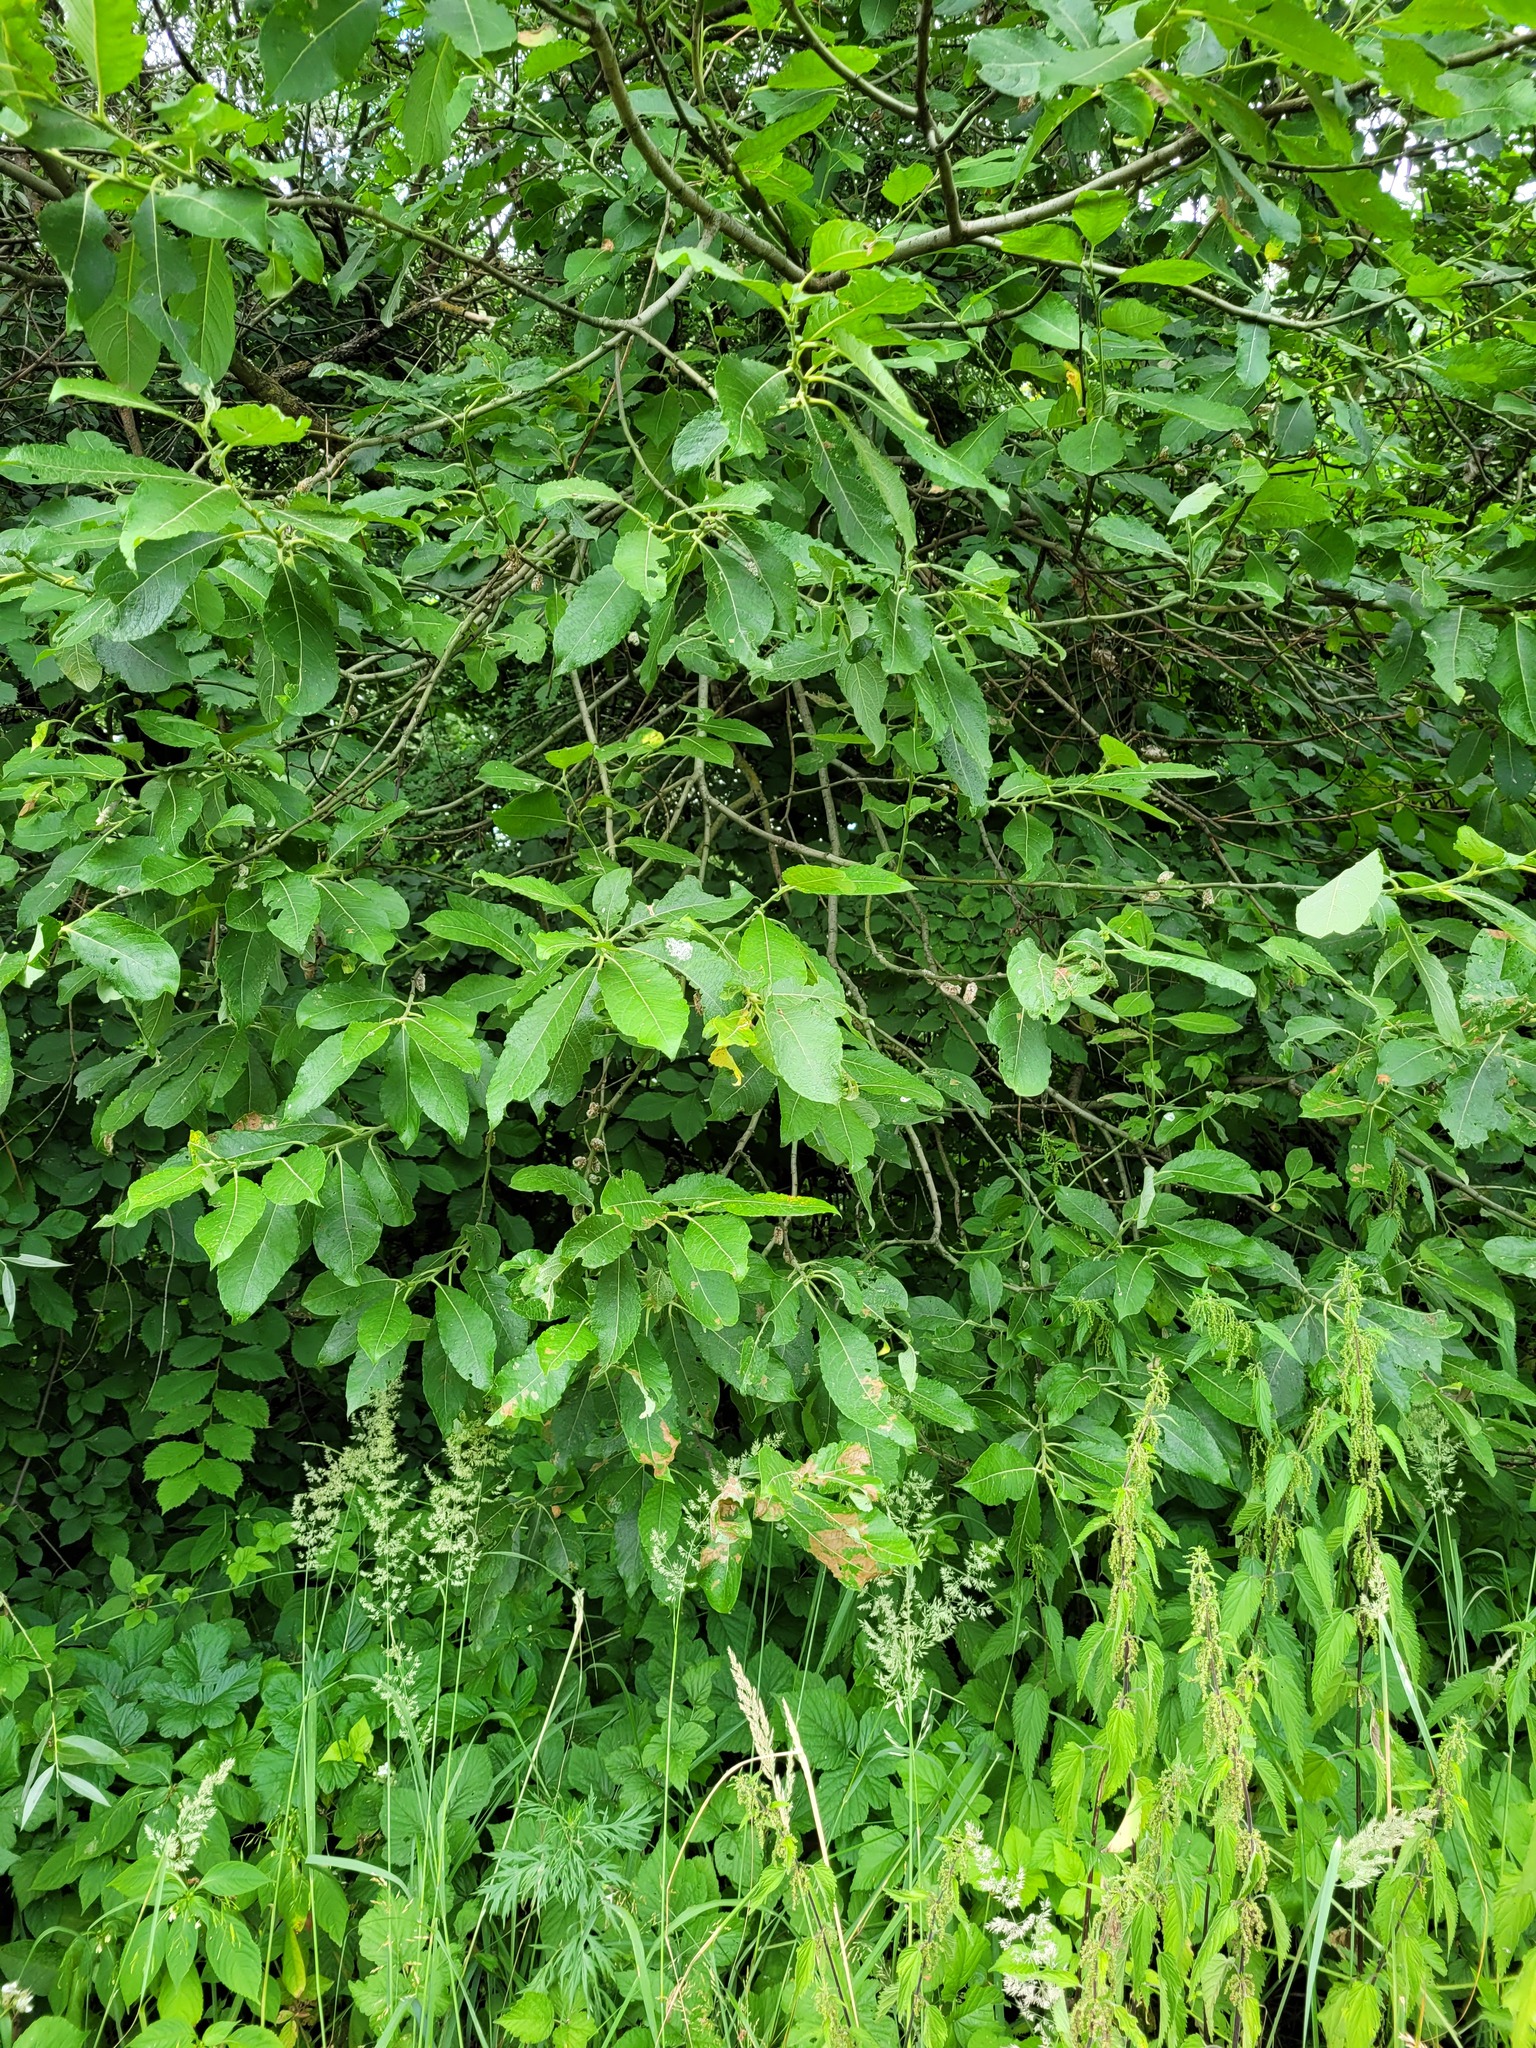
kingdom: Plantae
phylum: Tracheophyta
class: Magnoliopsida
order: Malpighiales
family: Salicaceae
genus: Salix
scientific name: Salix caprea
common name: Goat willow
